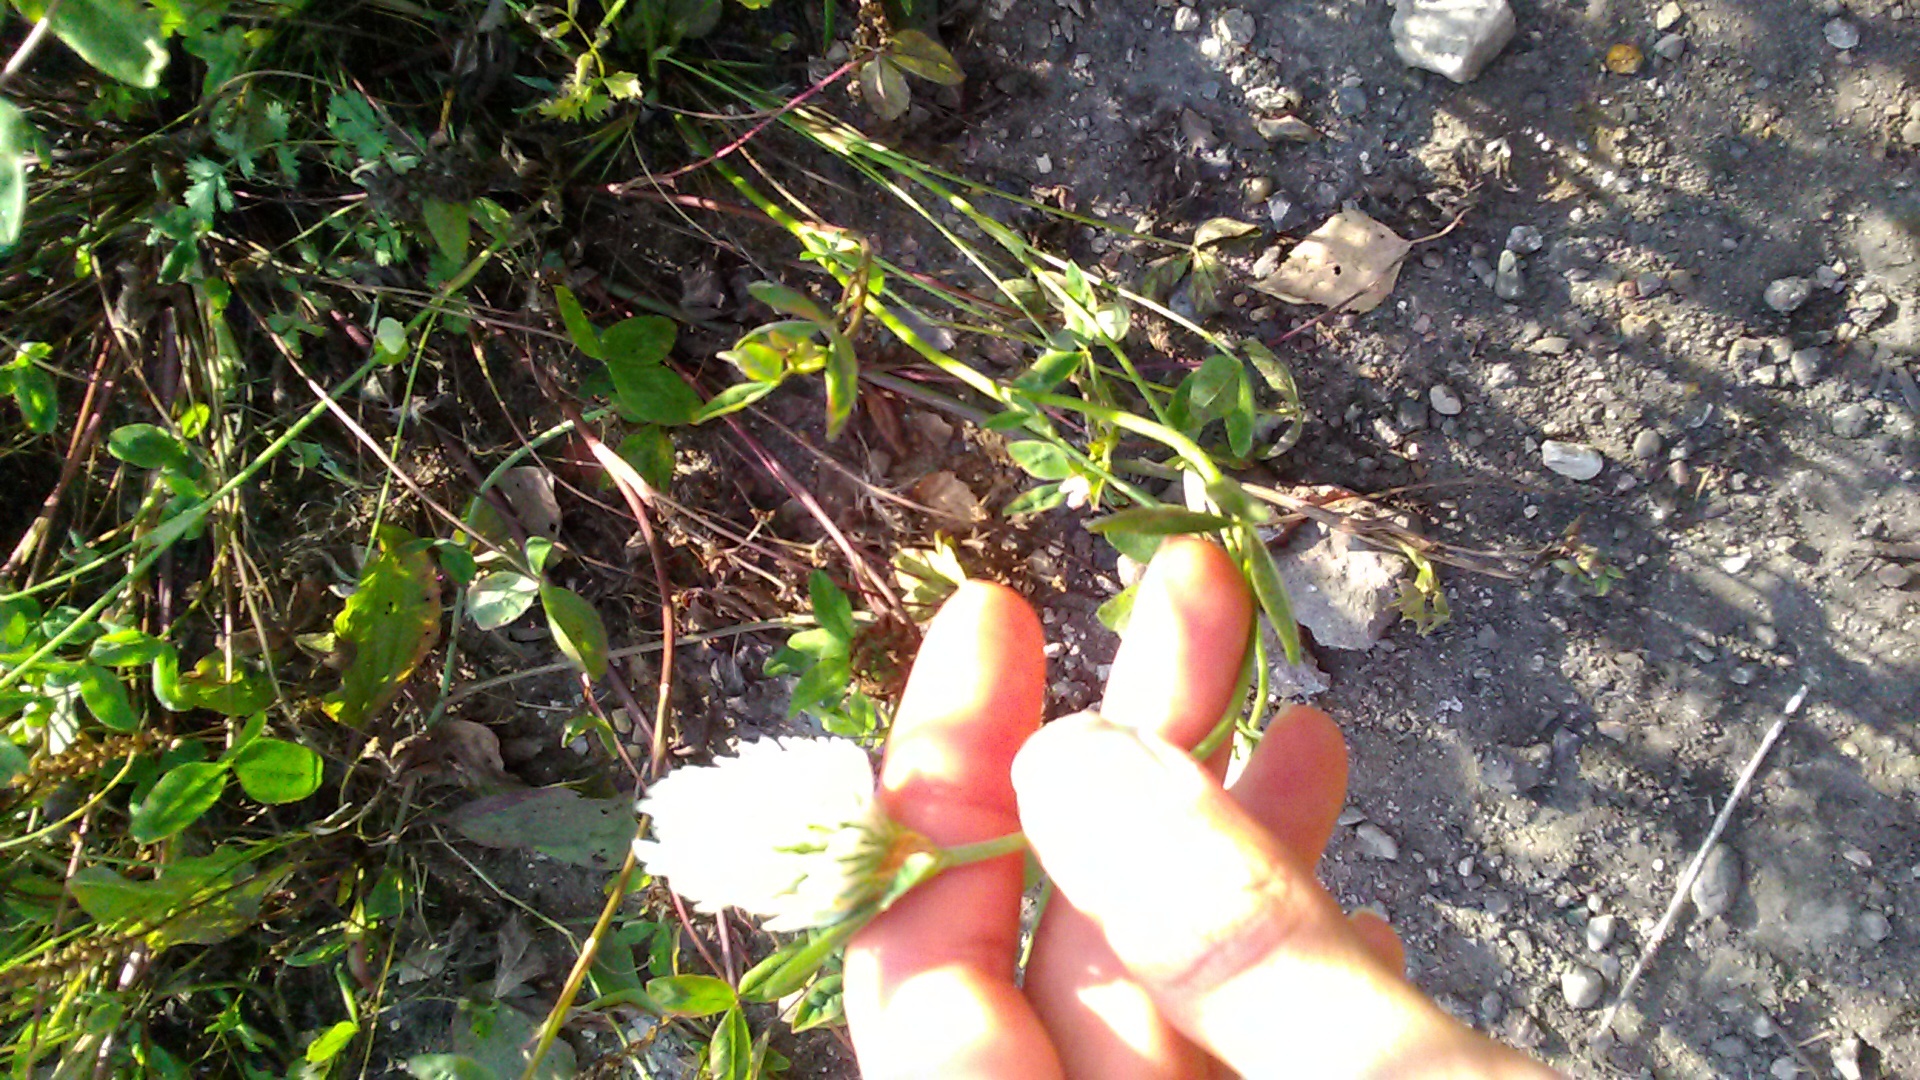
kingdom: Plantae
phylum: Tracheophyta
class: Magnoliopsida
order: Fabales
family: Fabaceae
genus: Trifolium
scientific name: Trifolium pratense
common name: Red clover
